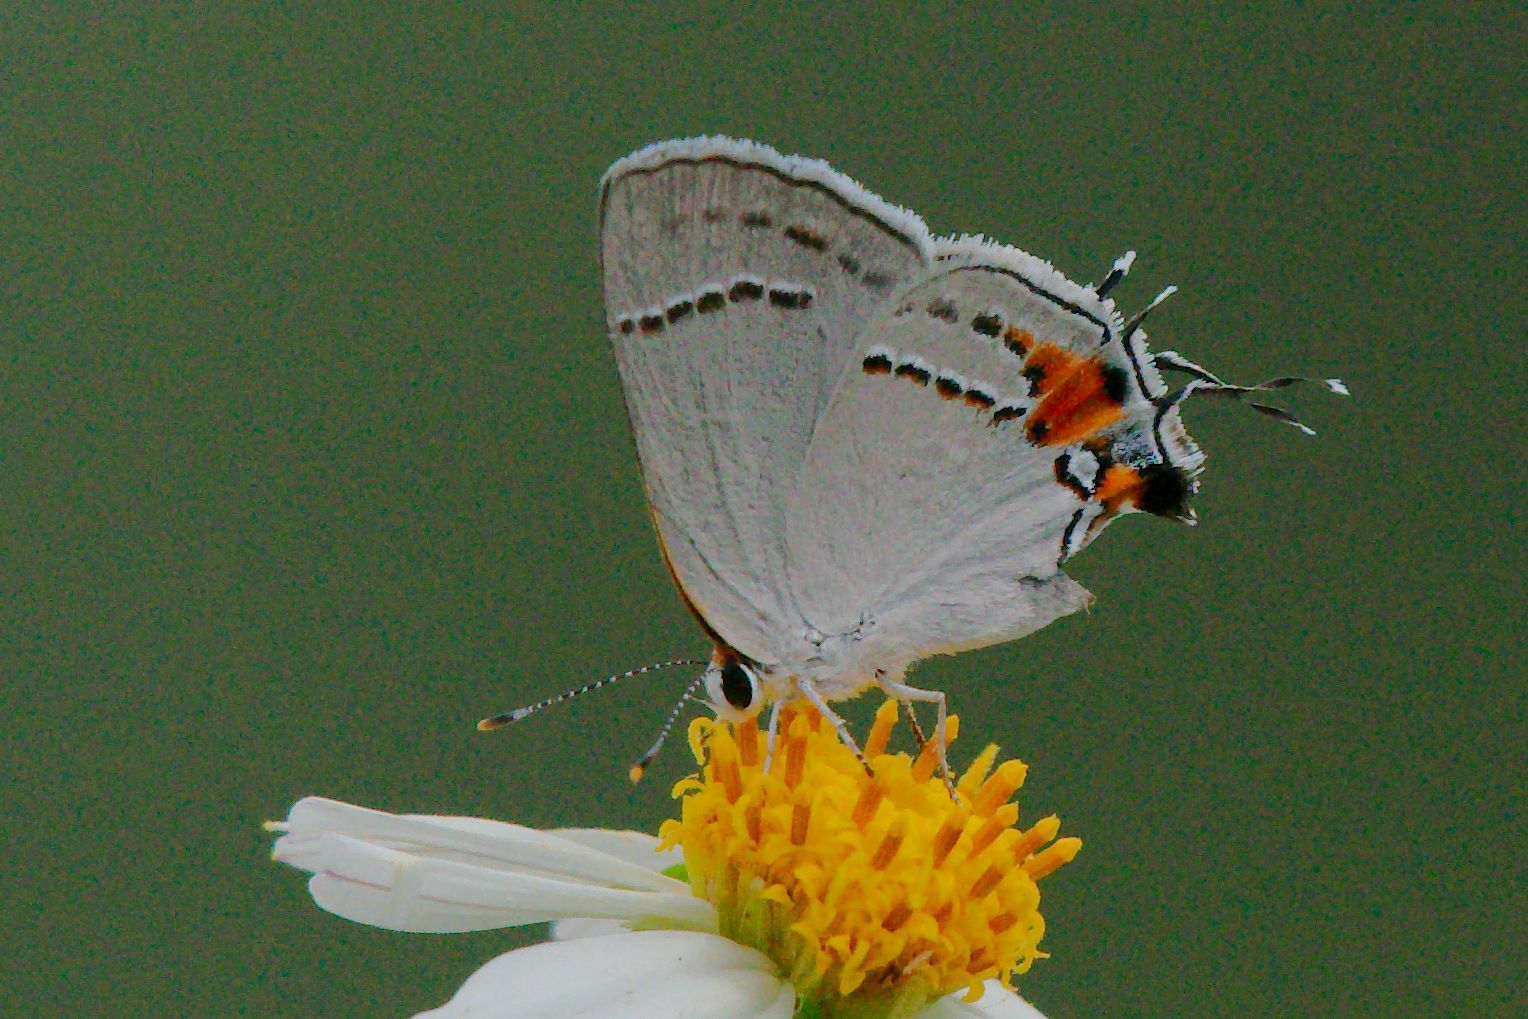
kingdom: Animalia
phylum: Arthropoda
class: Insecta
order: Lepidoptera
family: Lycaenidae
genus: Strymon
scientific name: Strymon melinus
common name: Gray hairstreak
